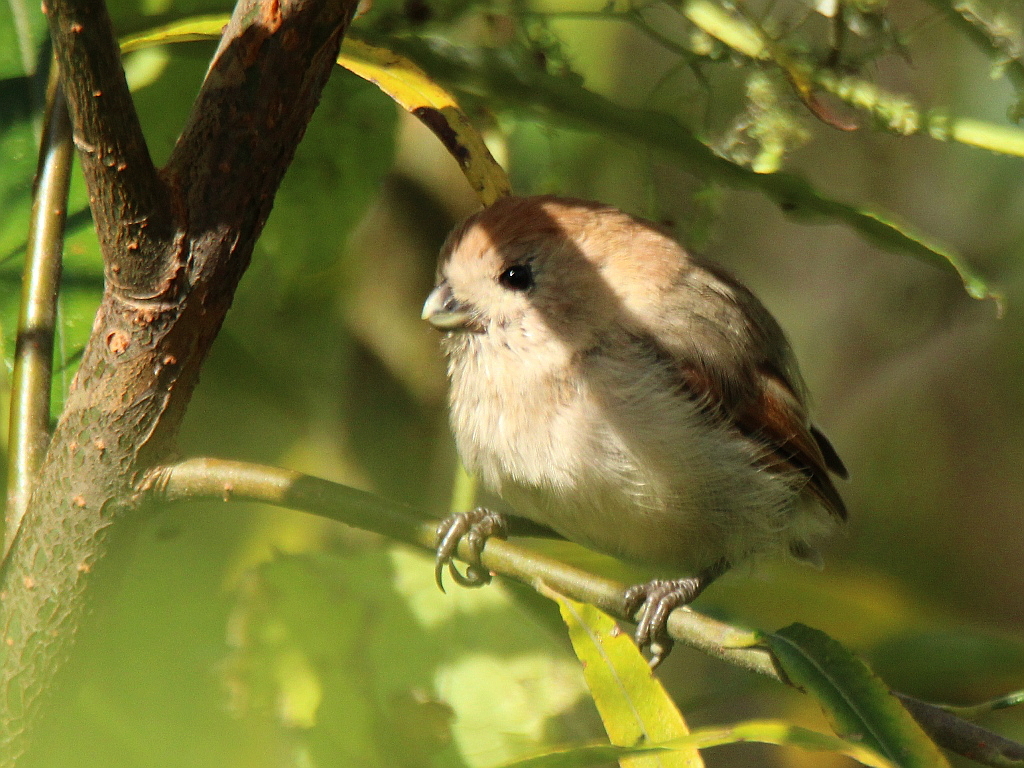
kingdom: Animalia
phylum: Chordata
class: Aves
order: Passeriformes
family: Sylviidae
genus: Sinosuthora
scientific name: Sinosuthora webbiana
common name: Vinous-throated parrotbill
